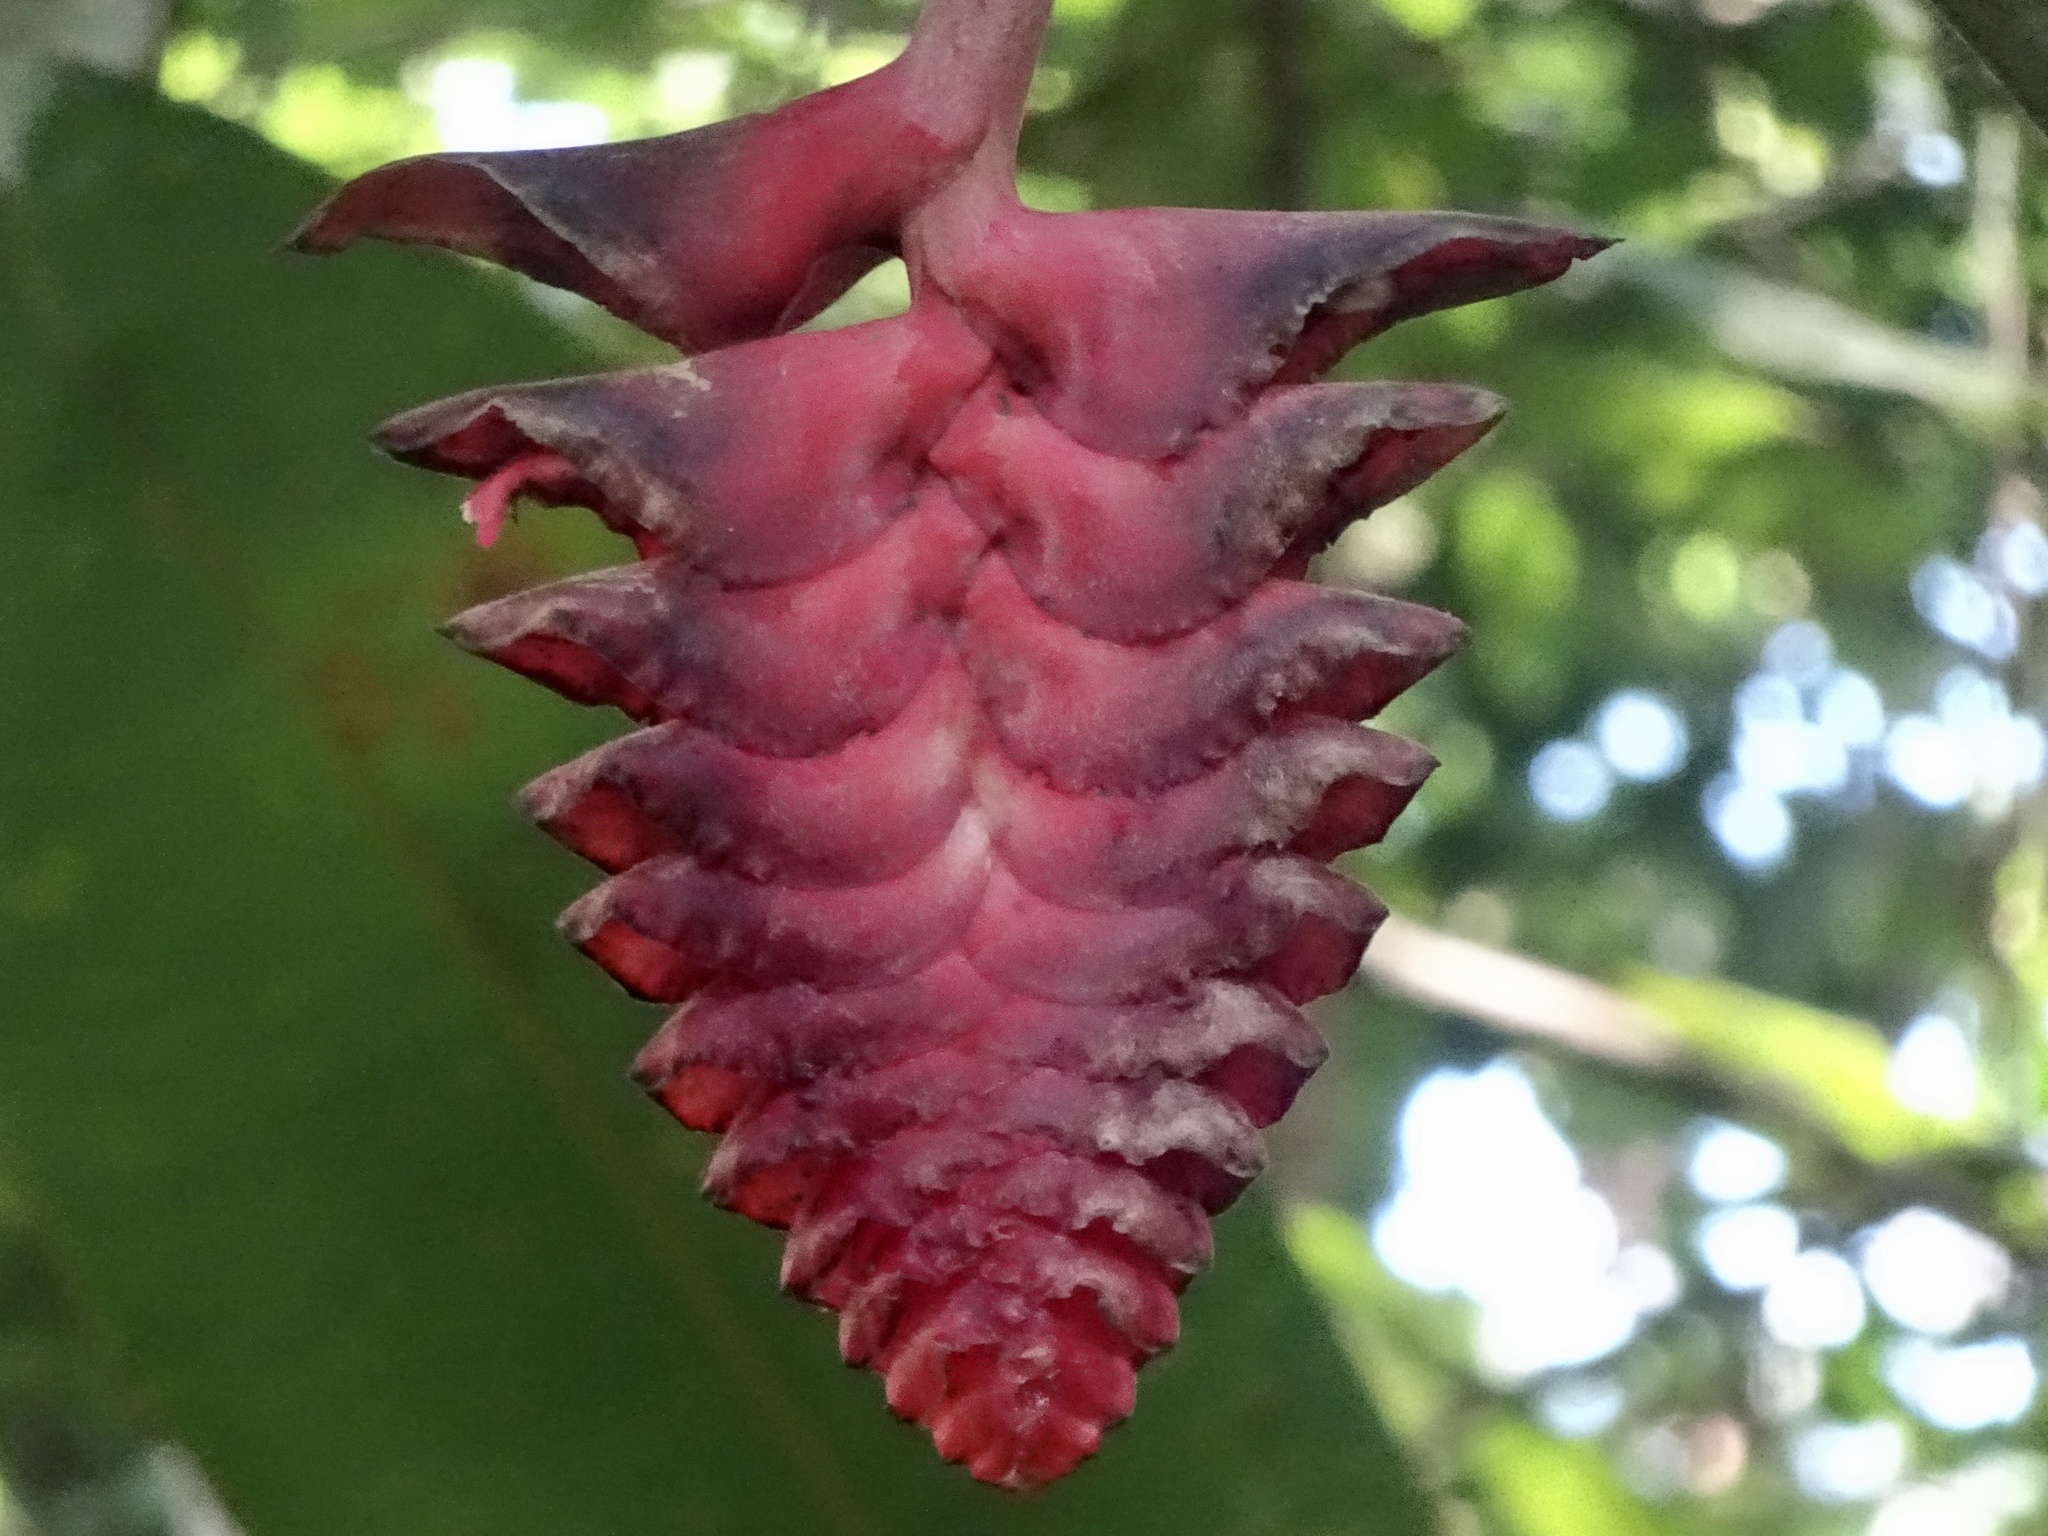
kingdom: Plantae
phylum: Tracheophyta
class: Liliopsida
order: Zingiberales
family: Heliconiaceae
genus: Heliconia
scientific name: Heliconia mariae
